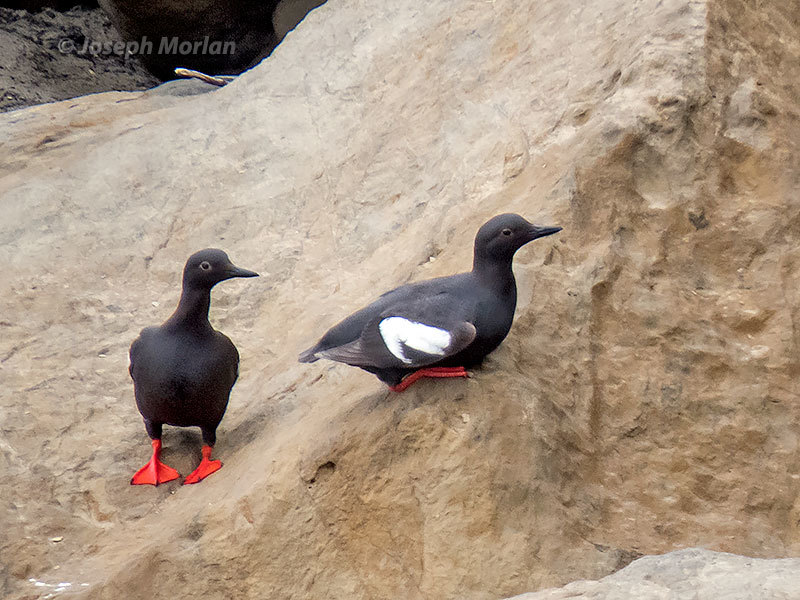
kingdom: Animalia
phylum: Chordata
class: Aves
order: Charadriiformes
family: Alcidae
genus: Cepphus
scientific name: Cepphus columba
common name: Pigeon guillemot
